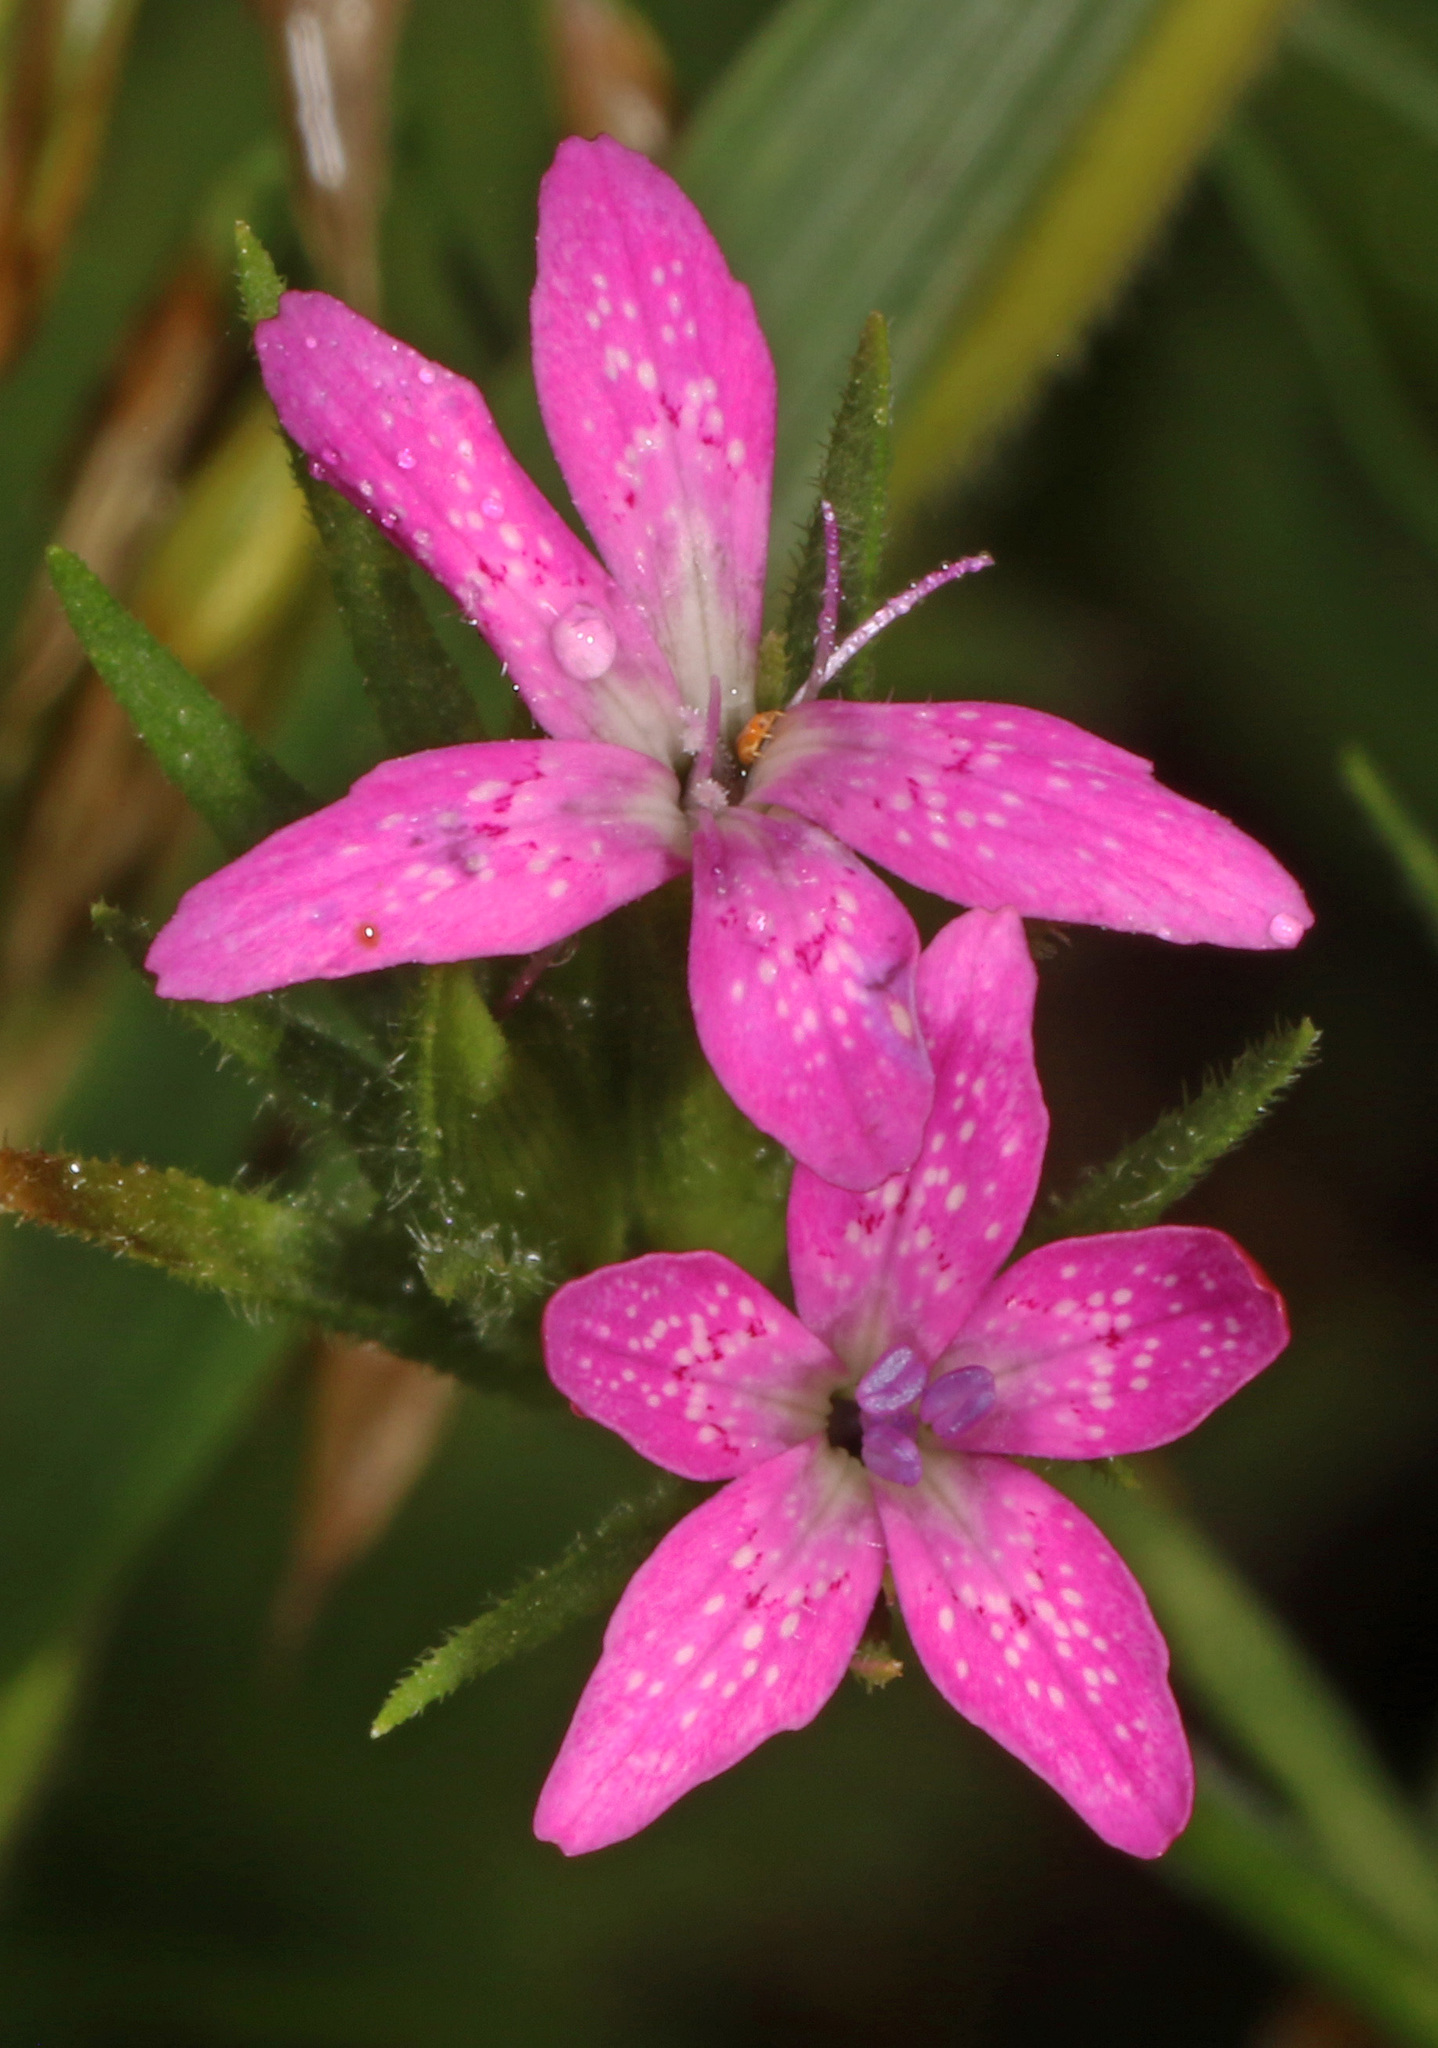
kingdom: Plantae
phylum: Tracheophyta
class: Magnoliopsida
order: Caryophyllales
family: Caryophyllaceae
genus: Dianthus
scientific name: Dianthus armeria
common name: Deptford pink
